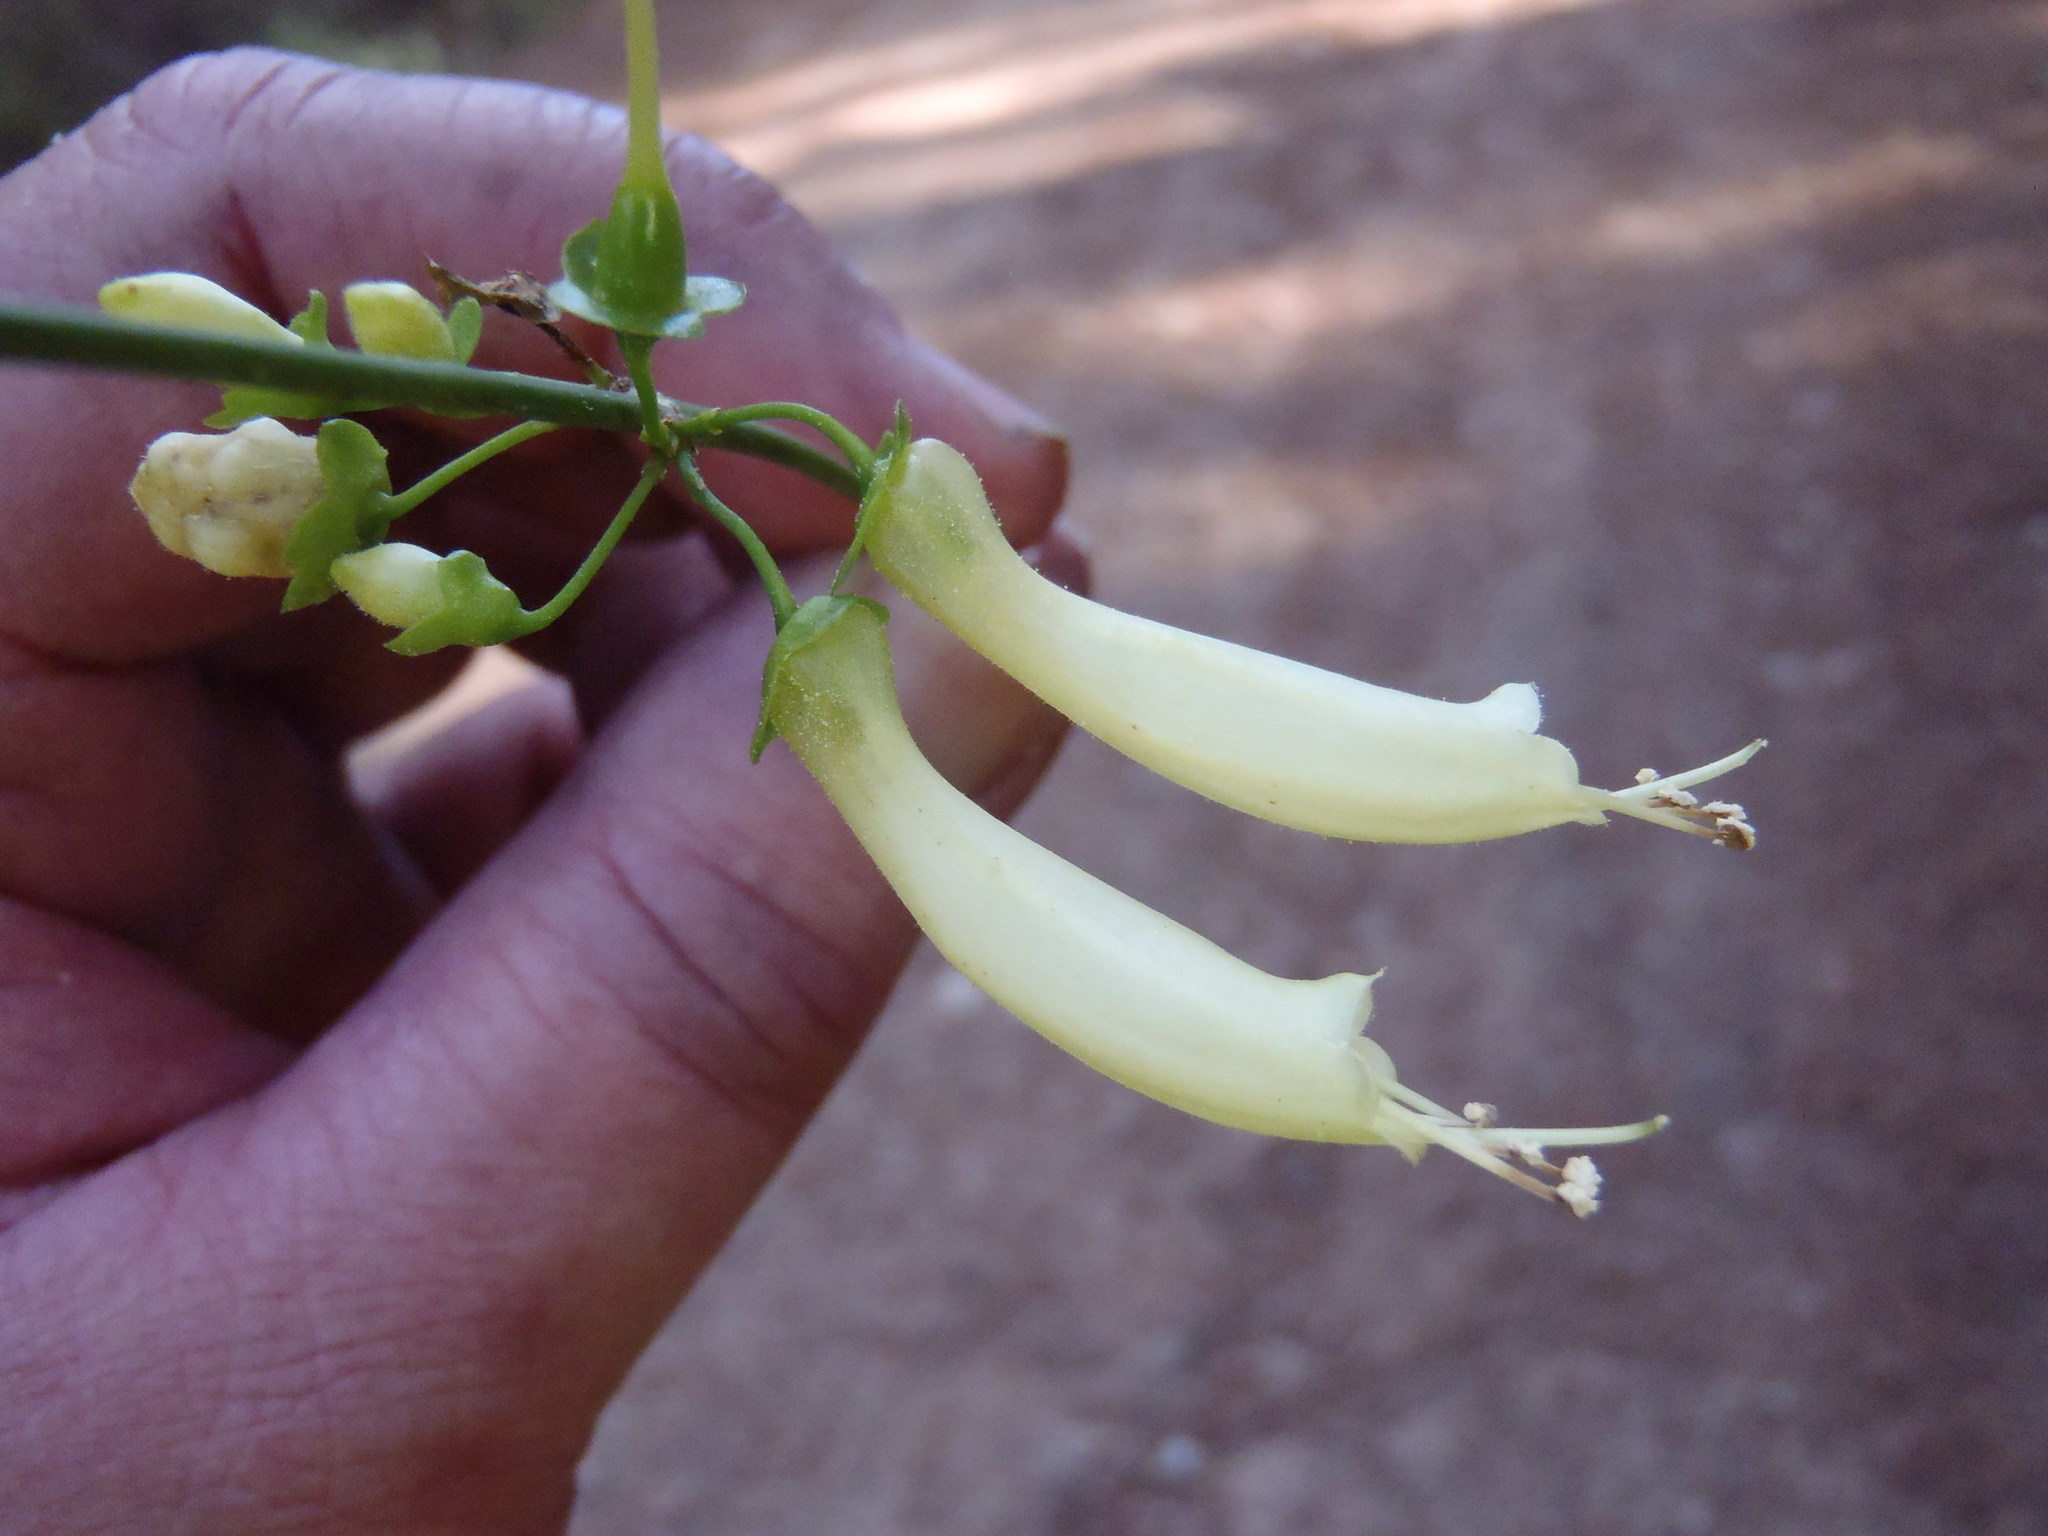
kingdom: Plantae
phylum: Tracheophyta
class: Magnoliopsida
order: Lamiales
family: Stilbaceae
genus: Halleria
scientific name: Halleria lucida
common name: Tree fuschia
